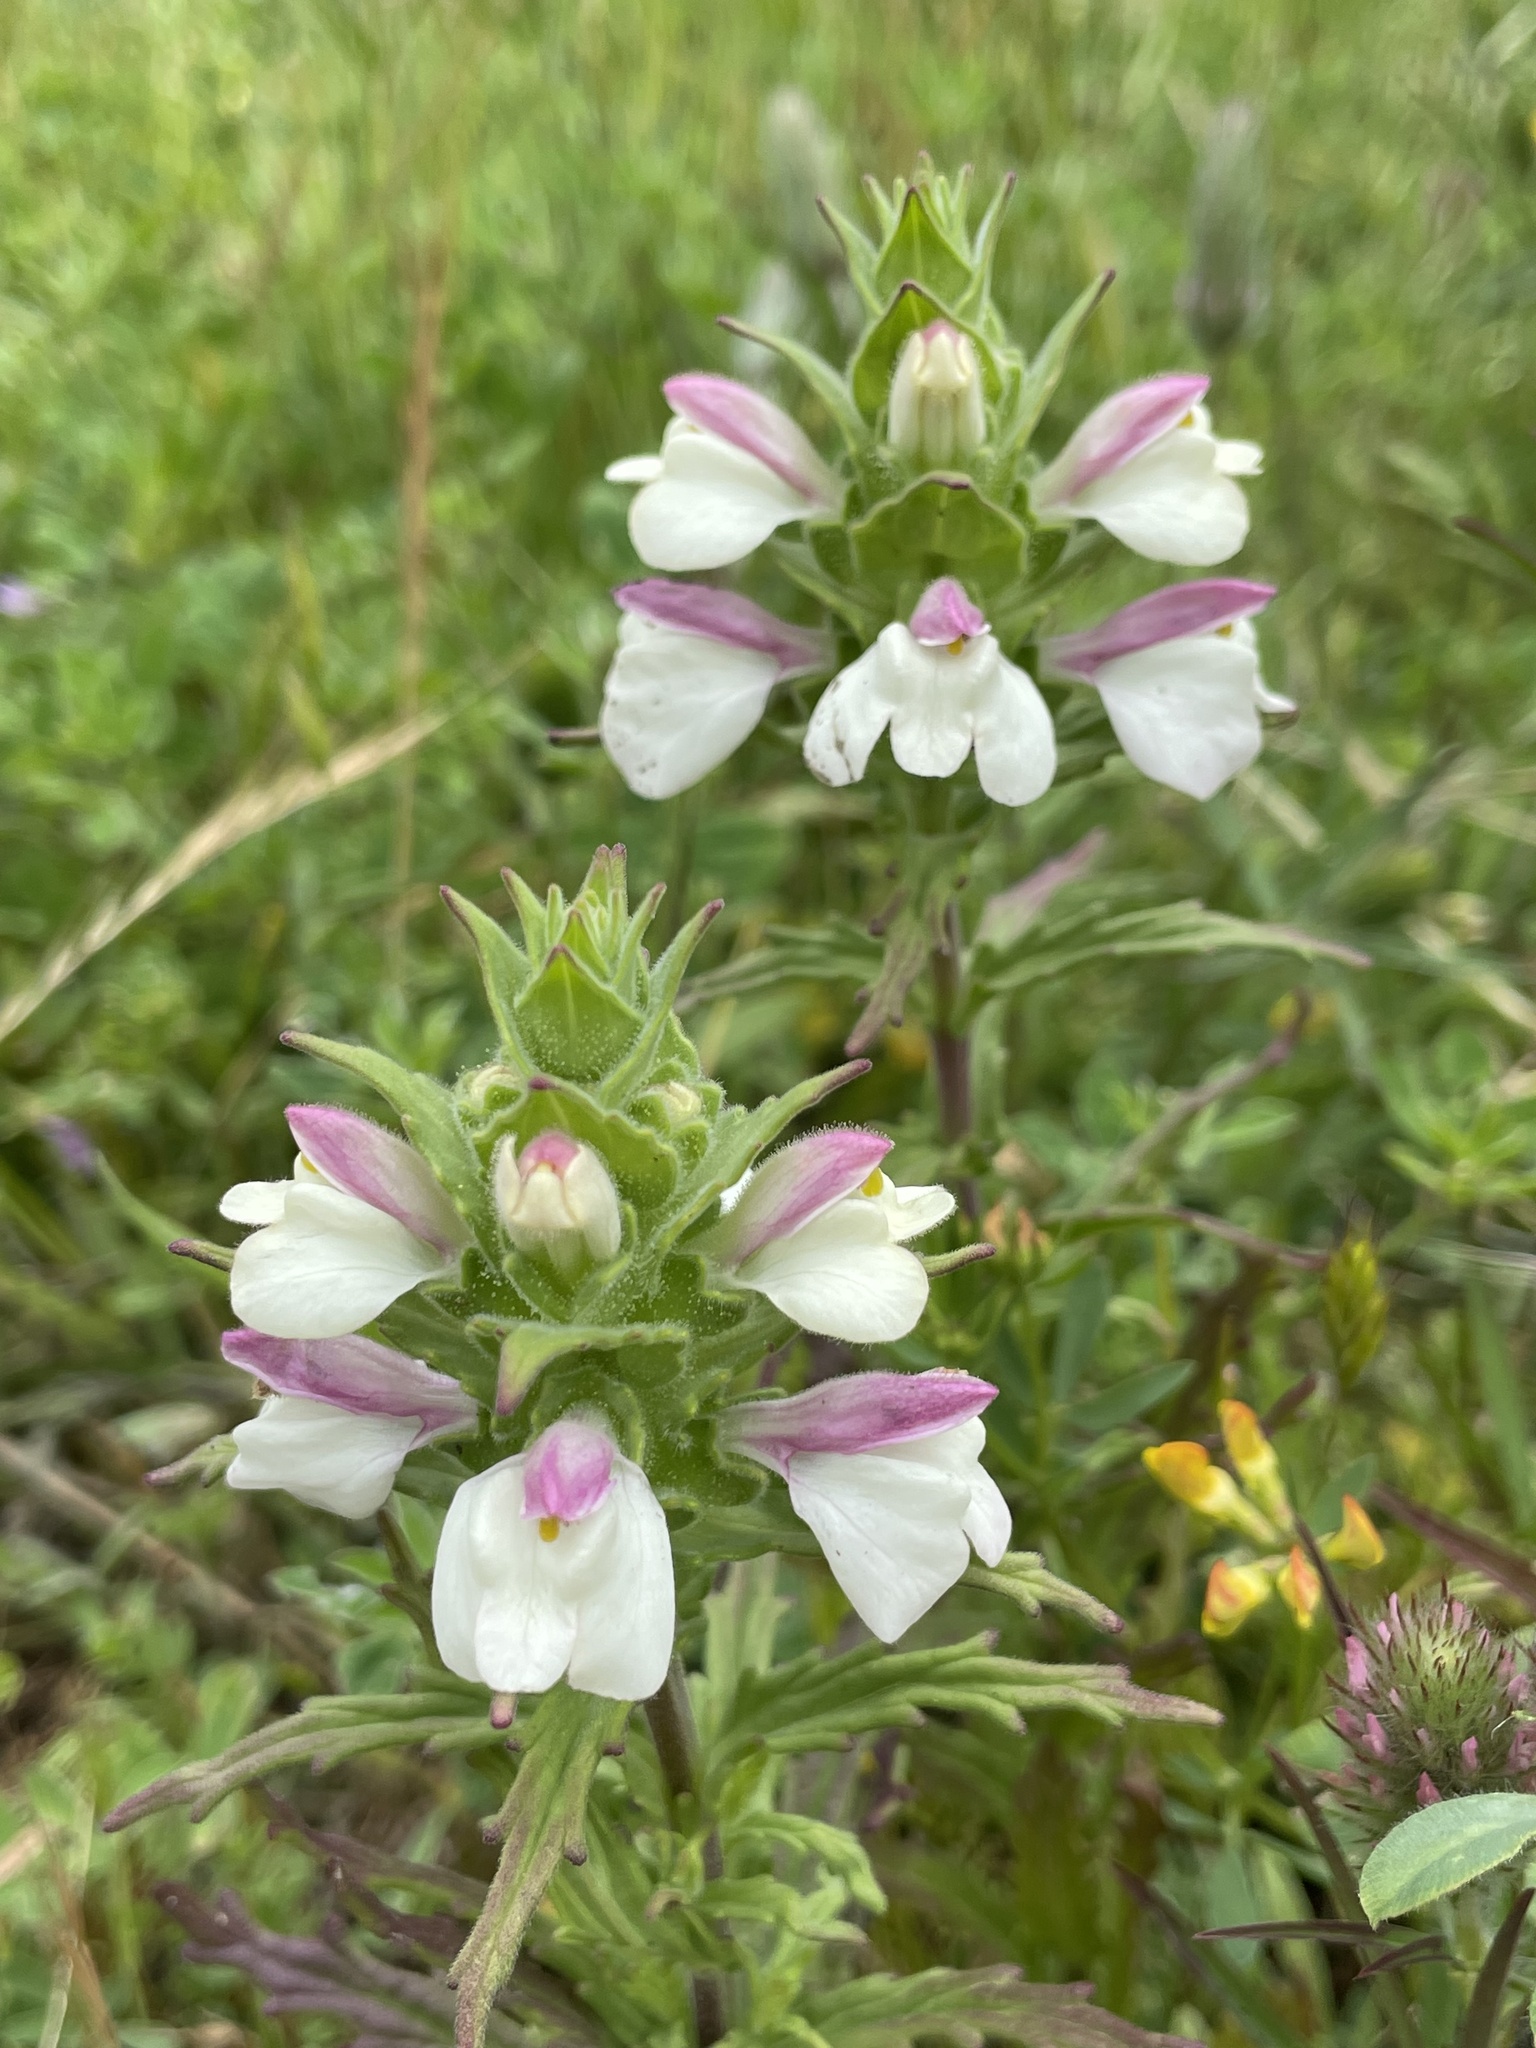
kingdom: Plantae
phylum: Tracheophyta
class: Magnoliopsida
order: Lamiales
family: Orobanchaceae
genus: Bellardia
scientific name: Bellardia trixago
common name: Mediterranean lineseed
